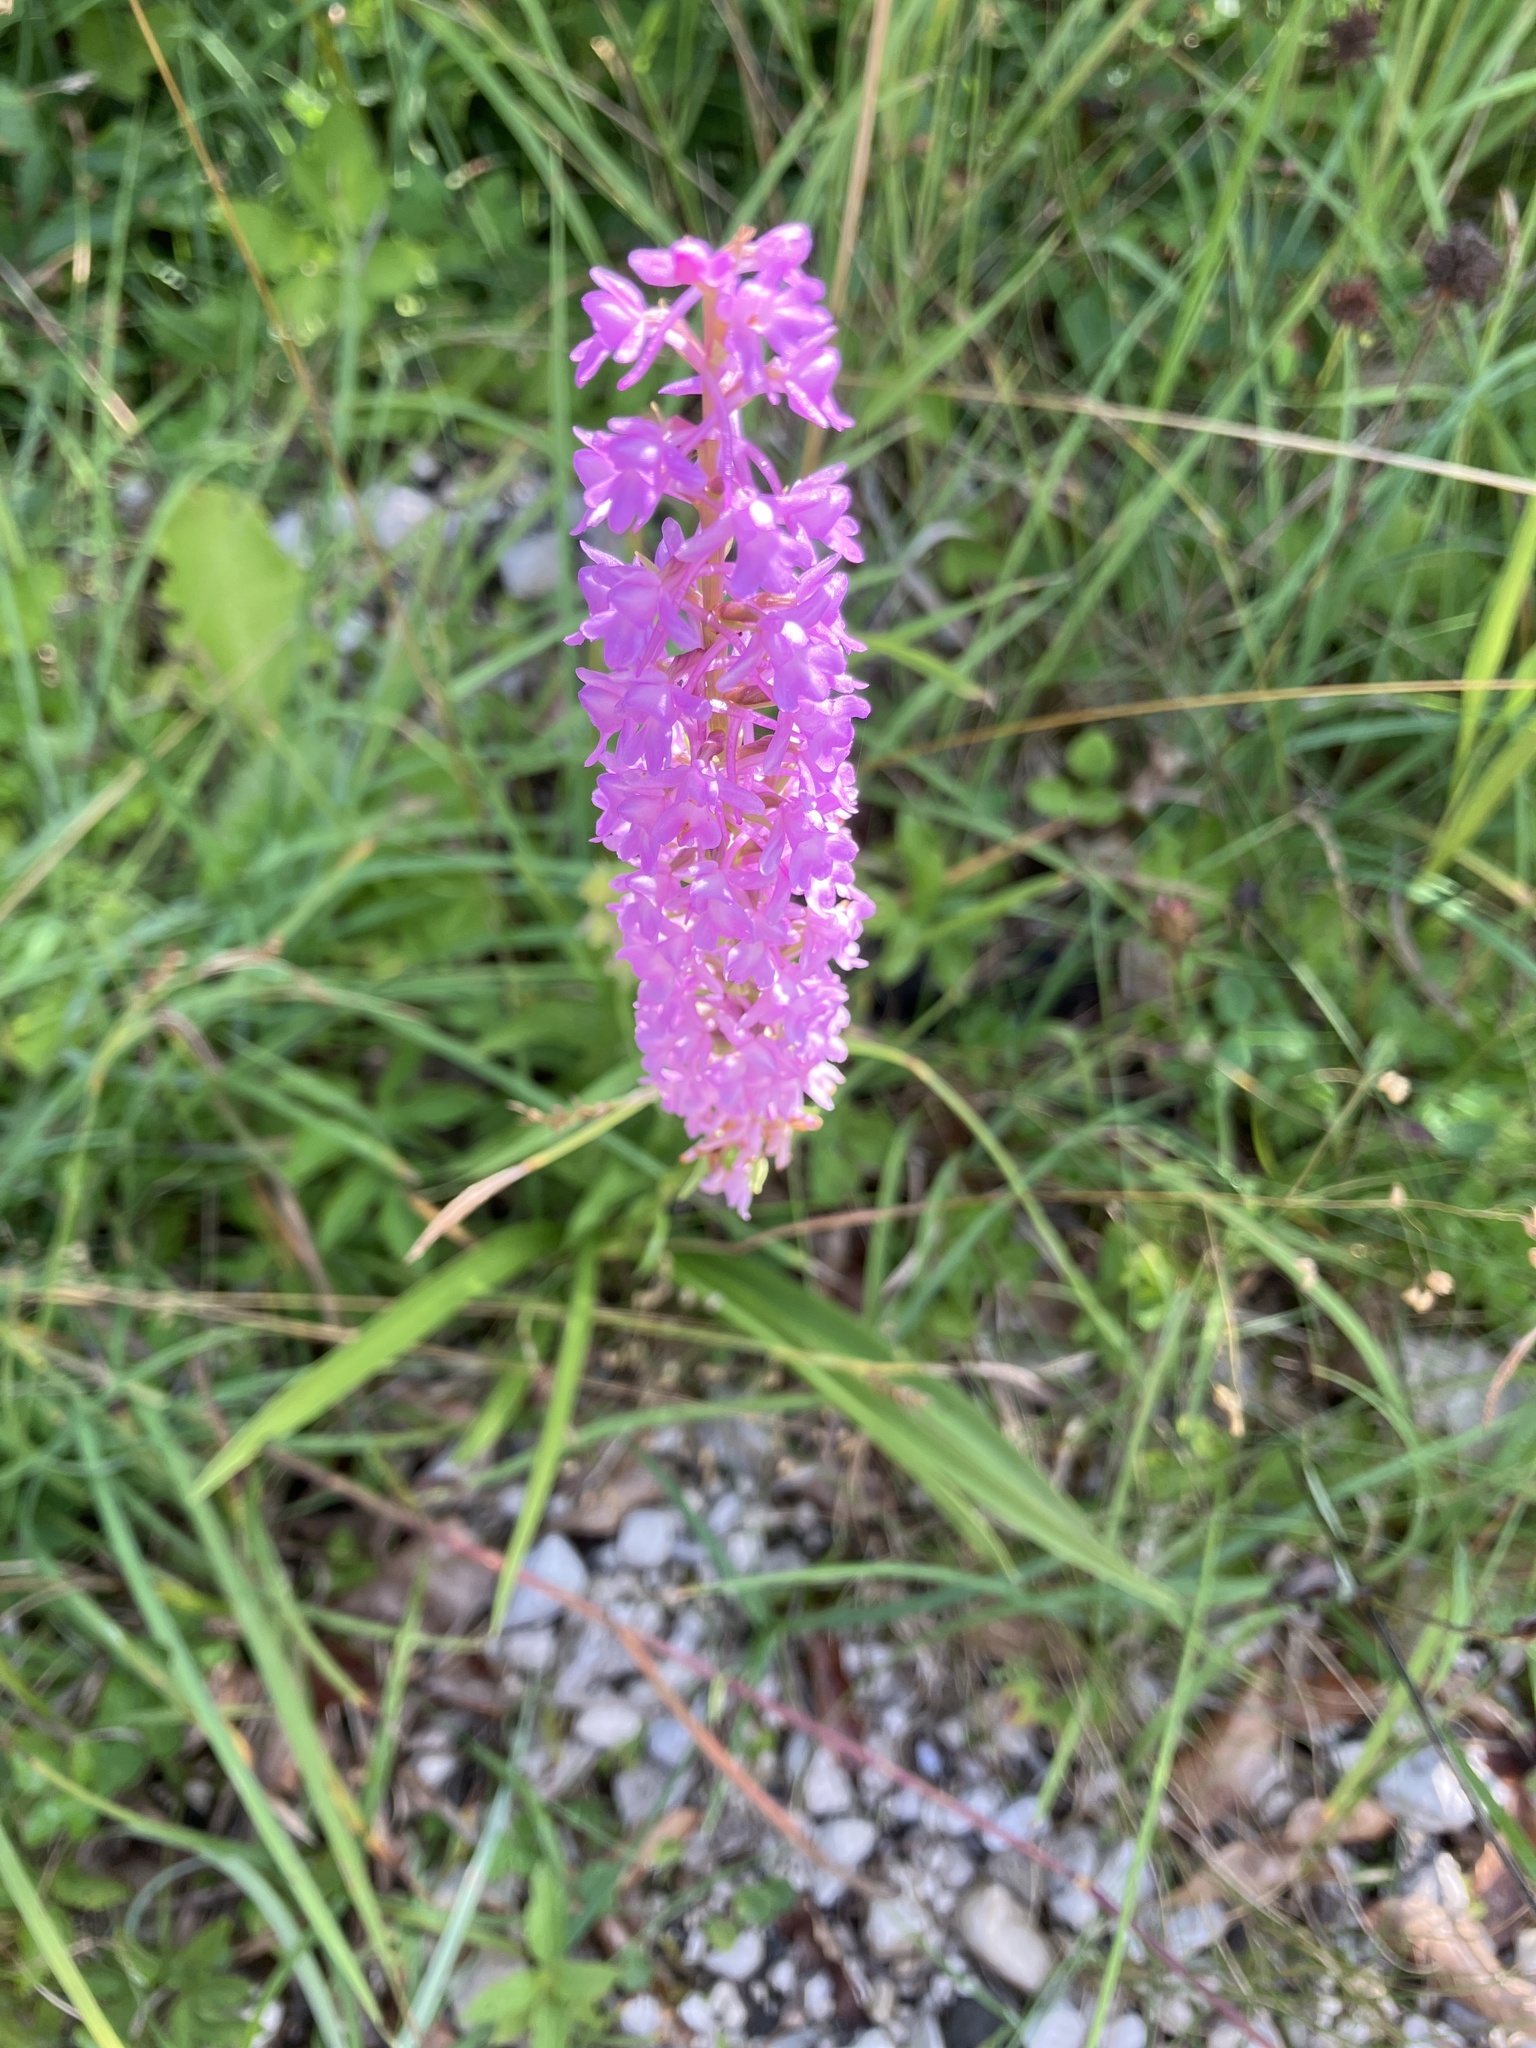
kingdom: Plantae
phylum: Tracheophyta
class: Liliopsida
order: Asparagales
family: Orchidaceae
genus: Gymnadenia
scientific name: Gymnadenia conopsea
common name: Fragrant orchid
